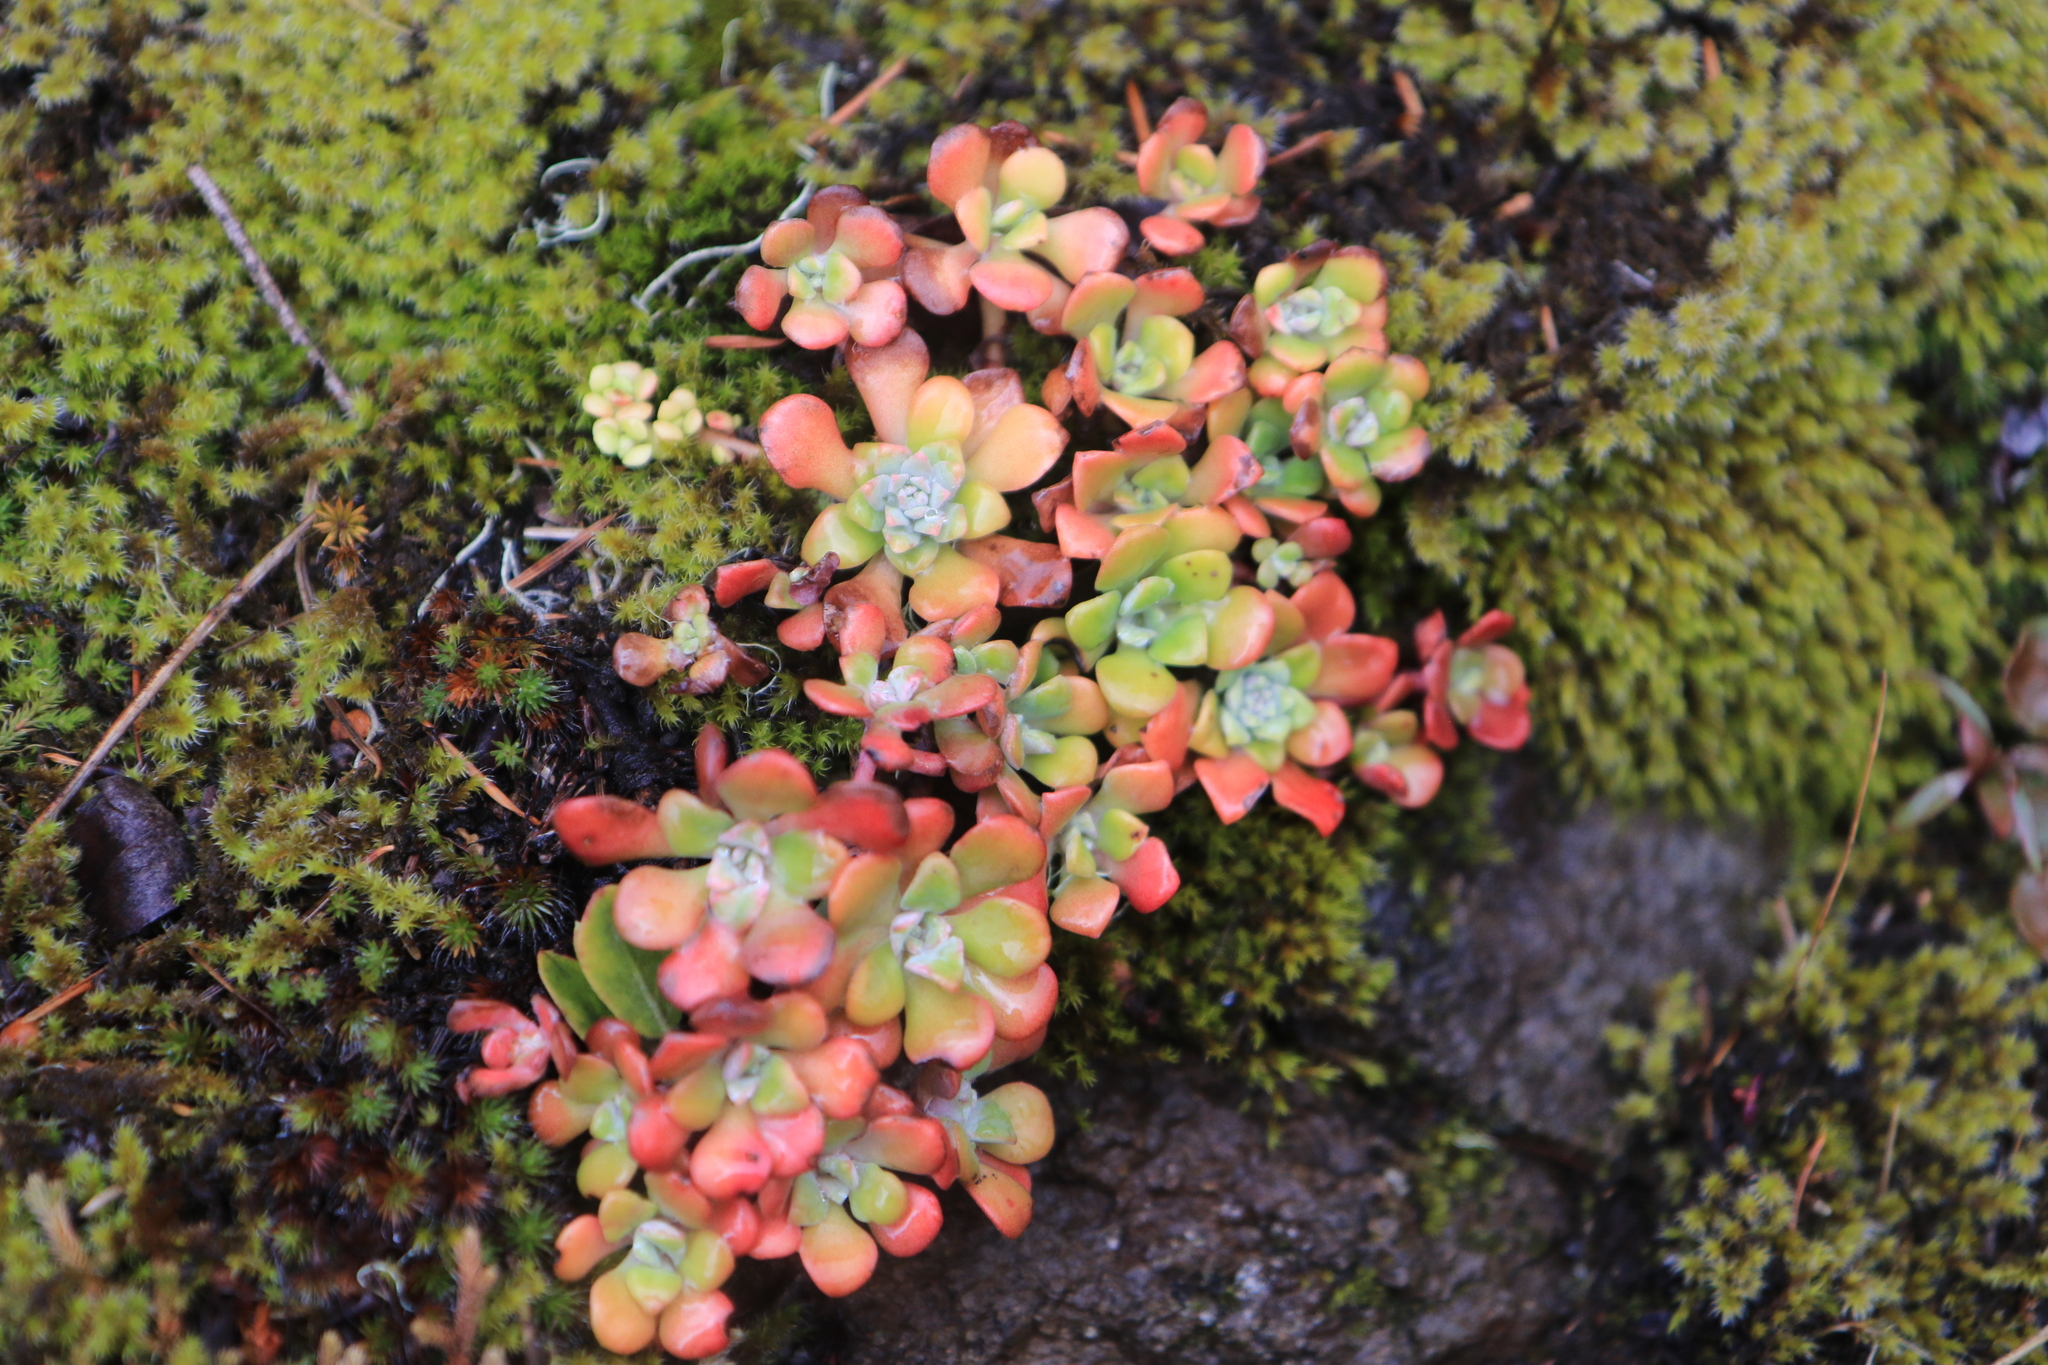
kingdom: Plantae
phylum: Tracheophyta
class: Magnoliopsida
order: Saxifragales
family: Crassulaceae
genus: Sedum
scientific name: Sedum spathulifolium
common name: Colorado stonecrop
